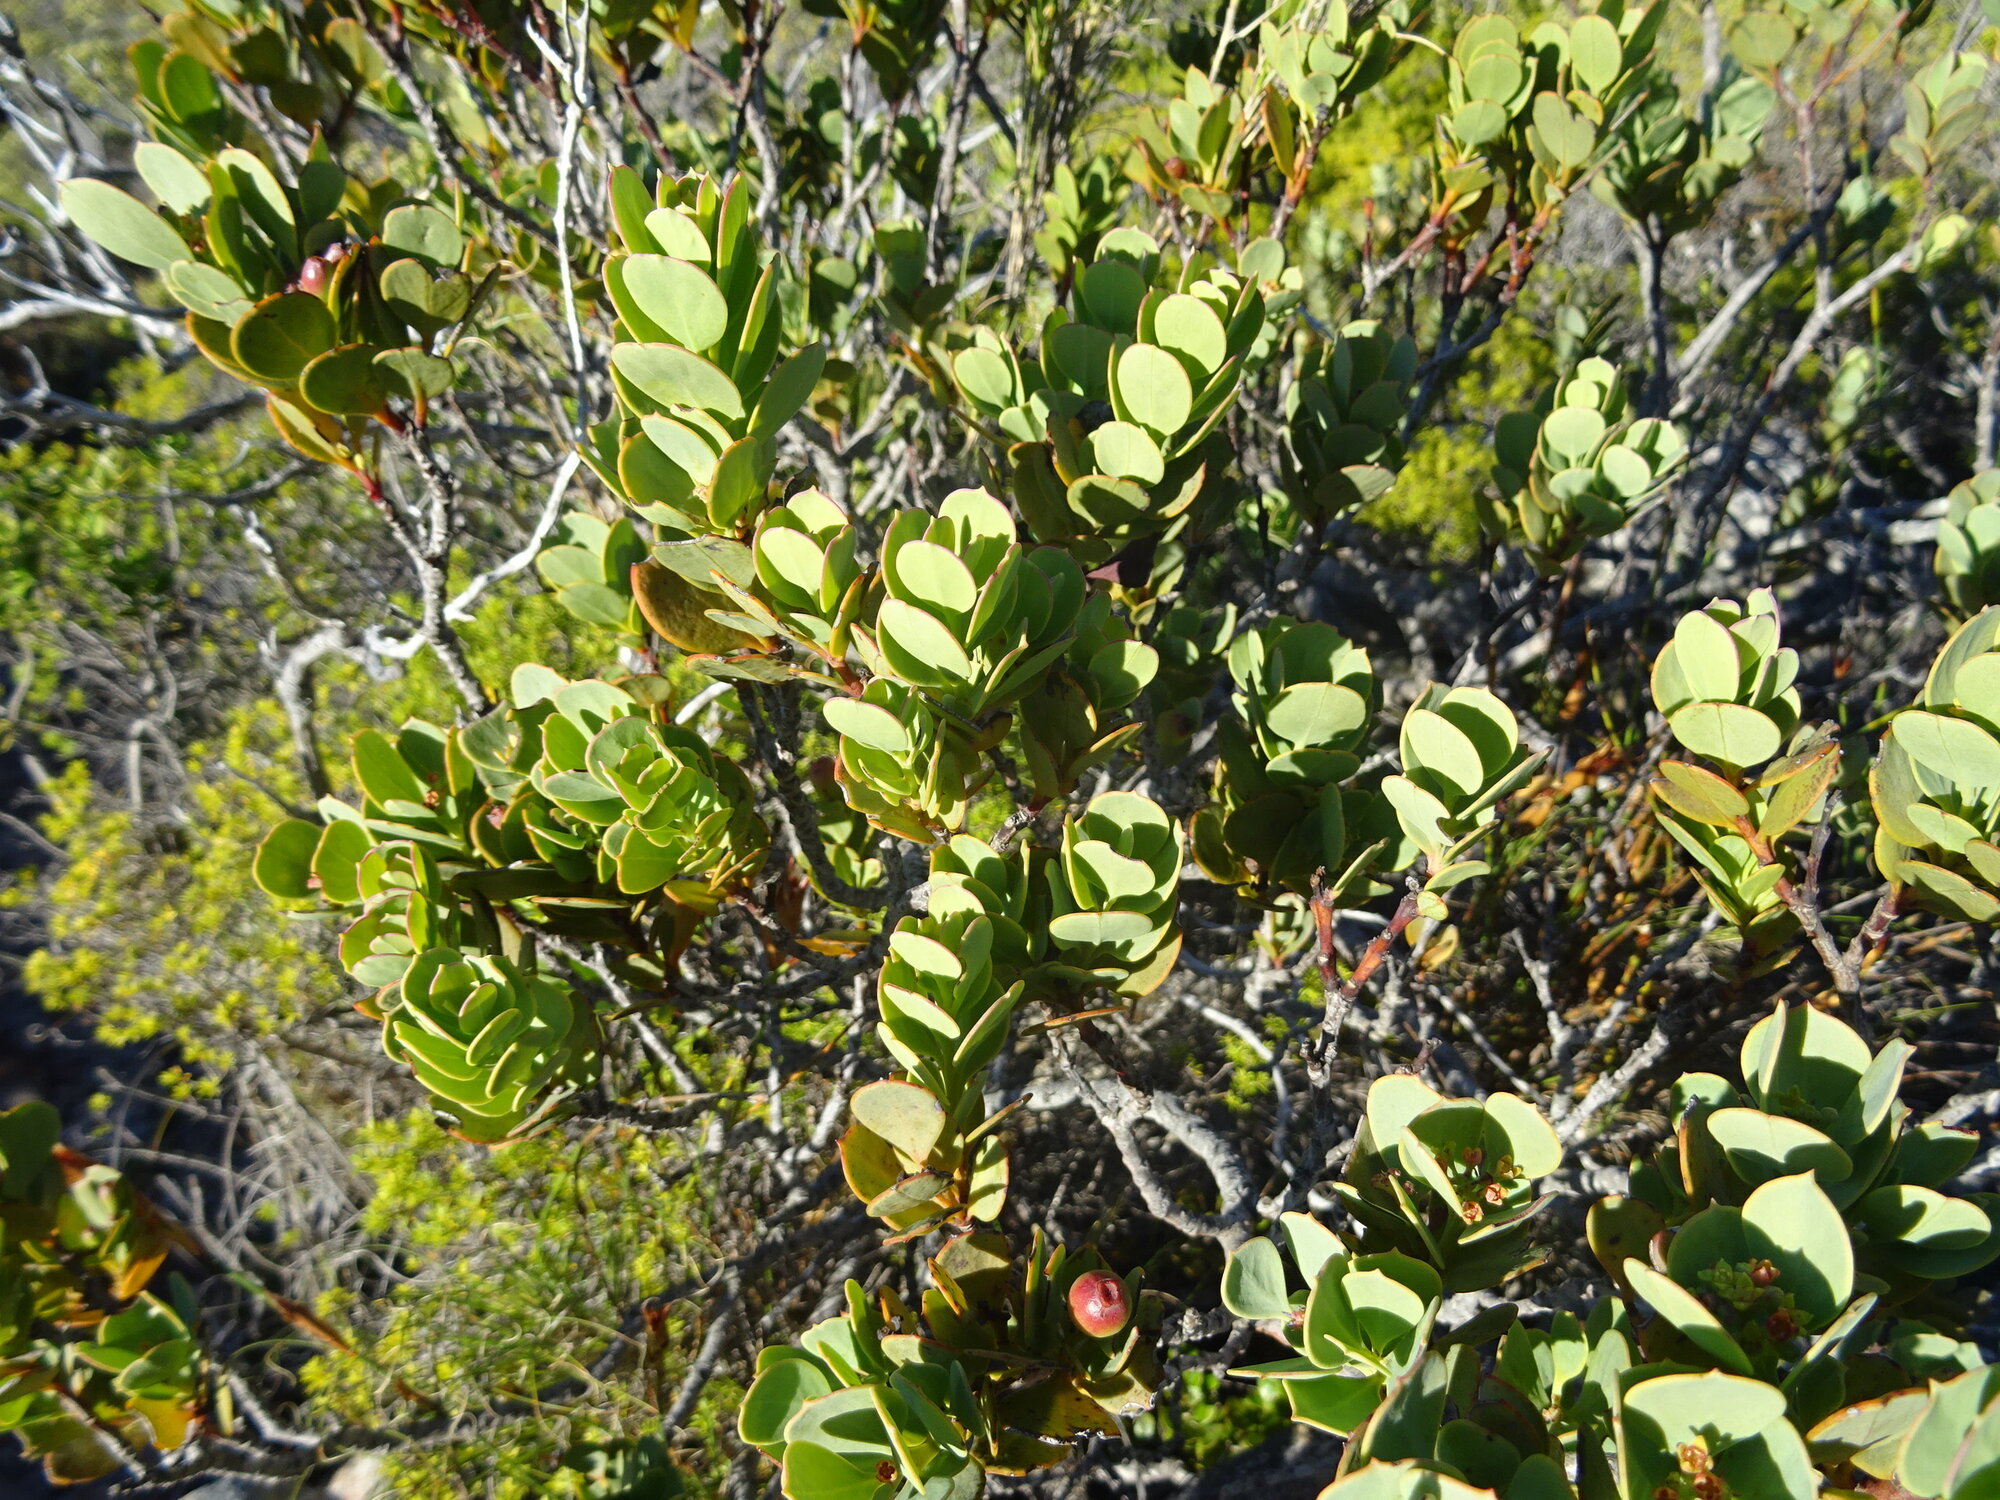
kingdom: Plantae
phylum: Tracheophyta
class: Magnoliopsida
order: Santalales
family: Santalaceae
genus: Osyris
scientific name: Osyris compressa
